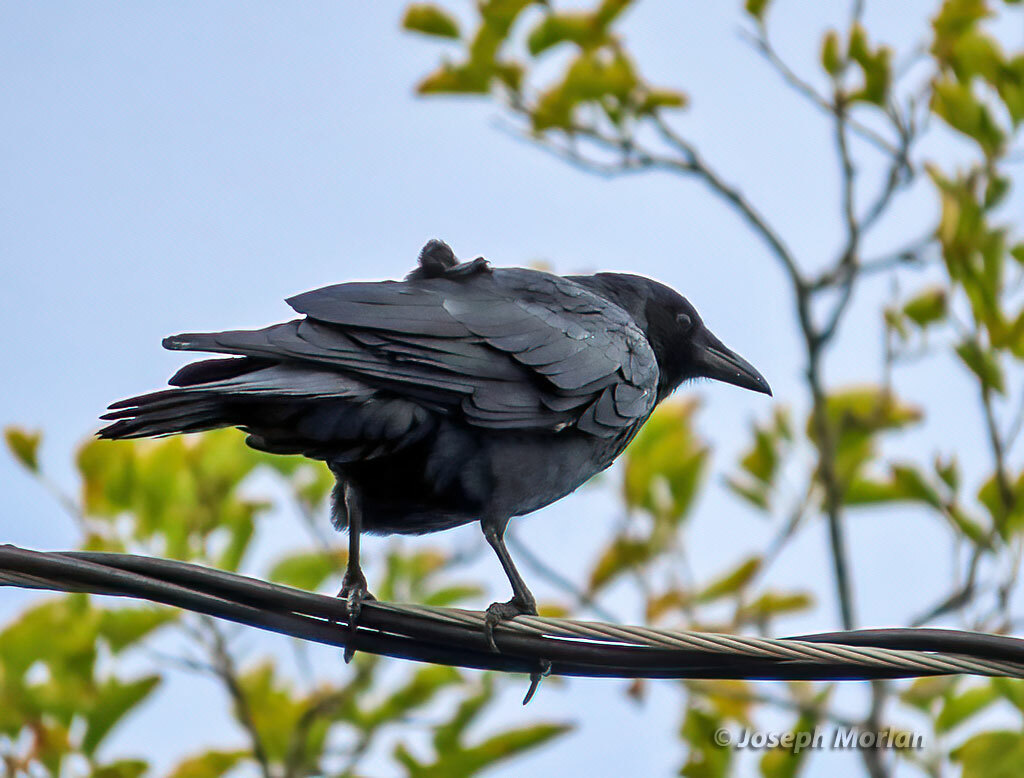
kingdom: Animalia
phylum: Chordata
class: Aves
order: Passeriformes
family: Corvidae
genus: Corvus
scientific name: Corvus ossifragus
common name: Fish crow
